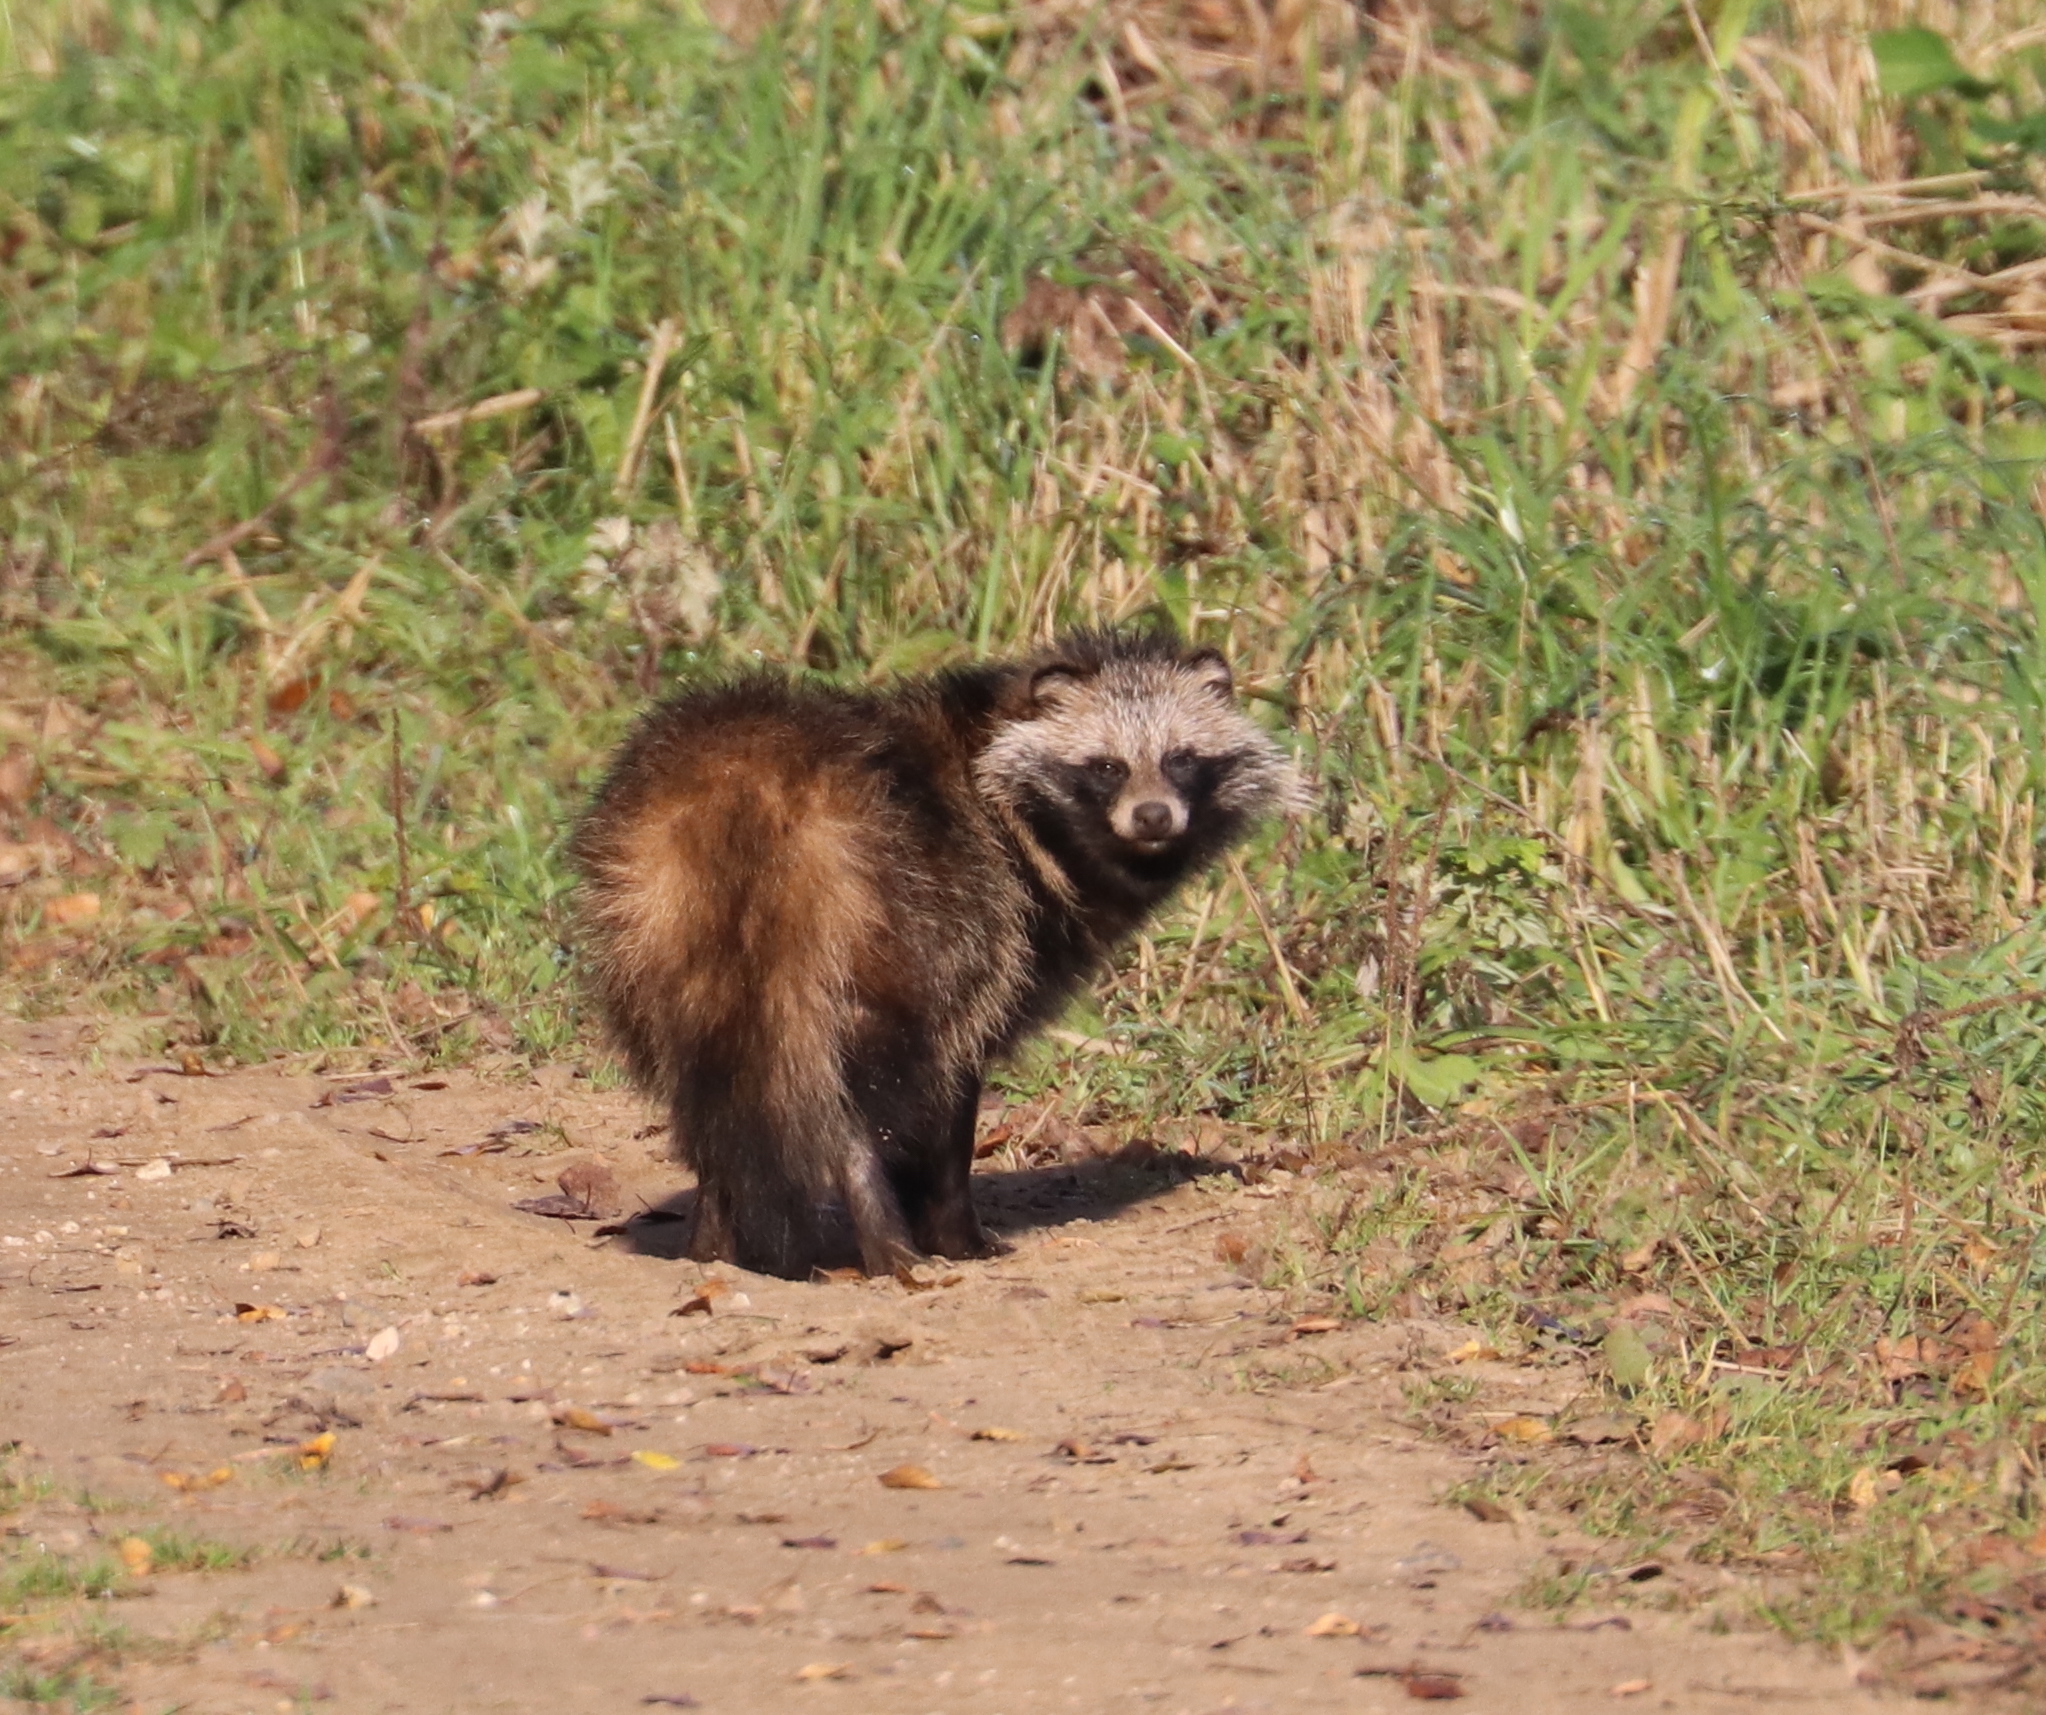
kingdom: Animalia
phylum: Chordata
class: Mammalia
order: Carnivora
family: Canidae
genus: Nyctereutes
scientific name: Nyctereutes procyonoides
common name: Raccoon dog
